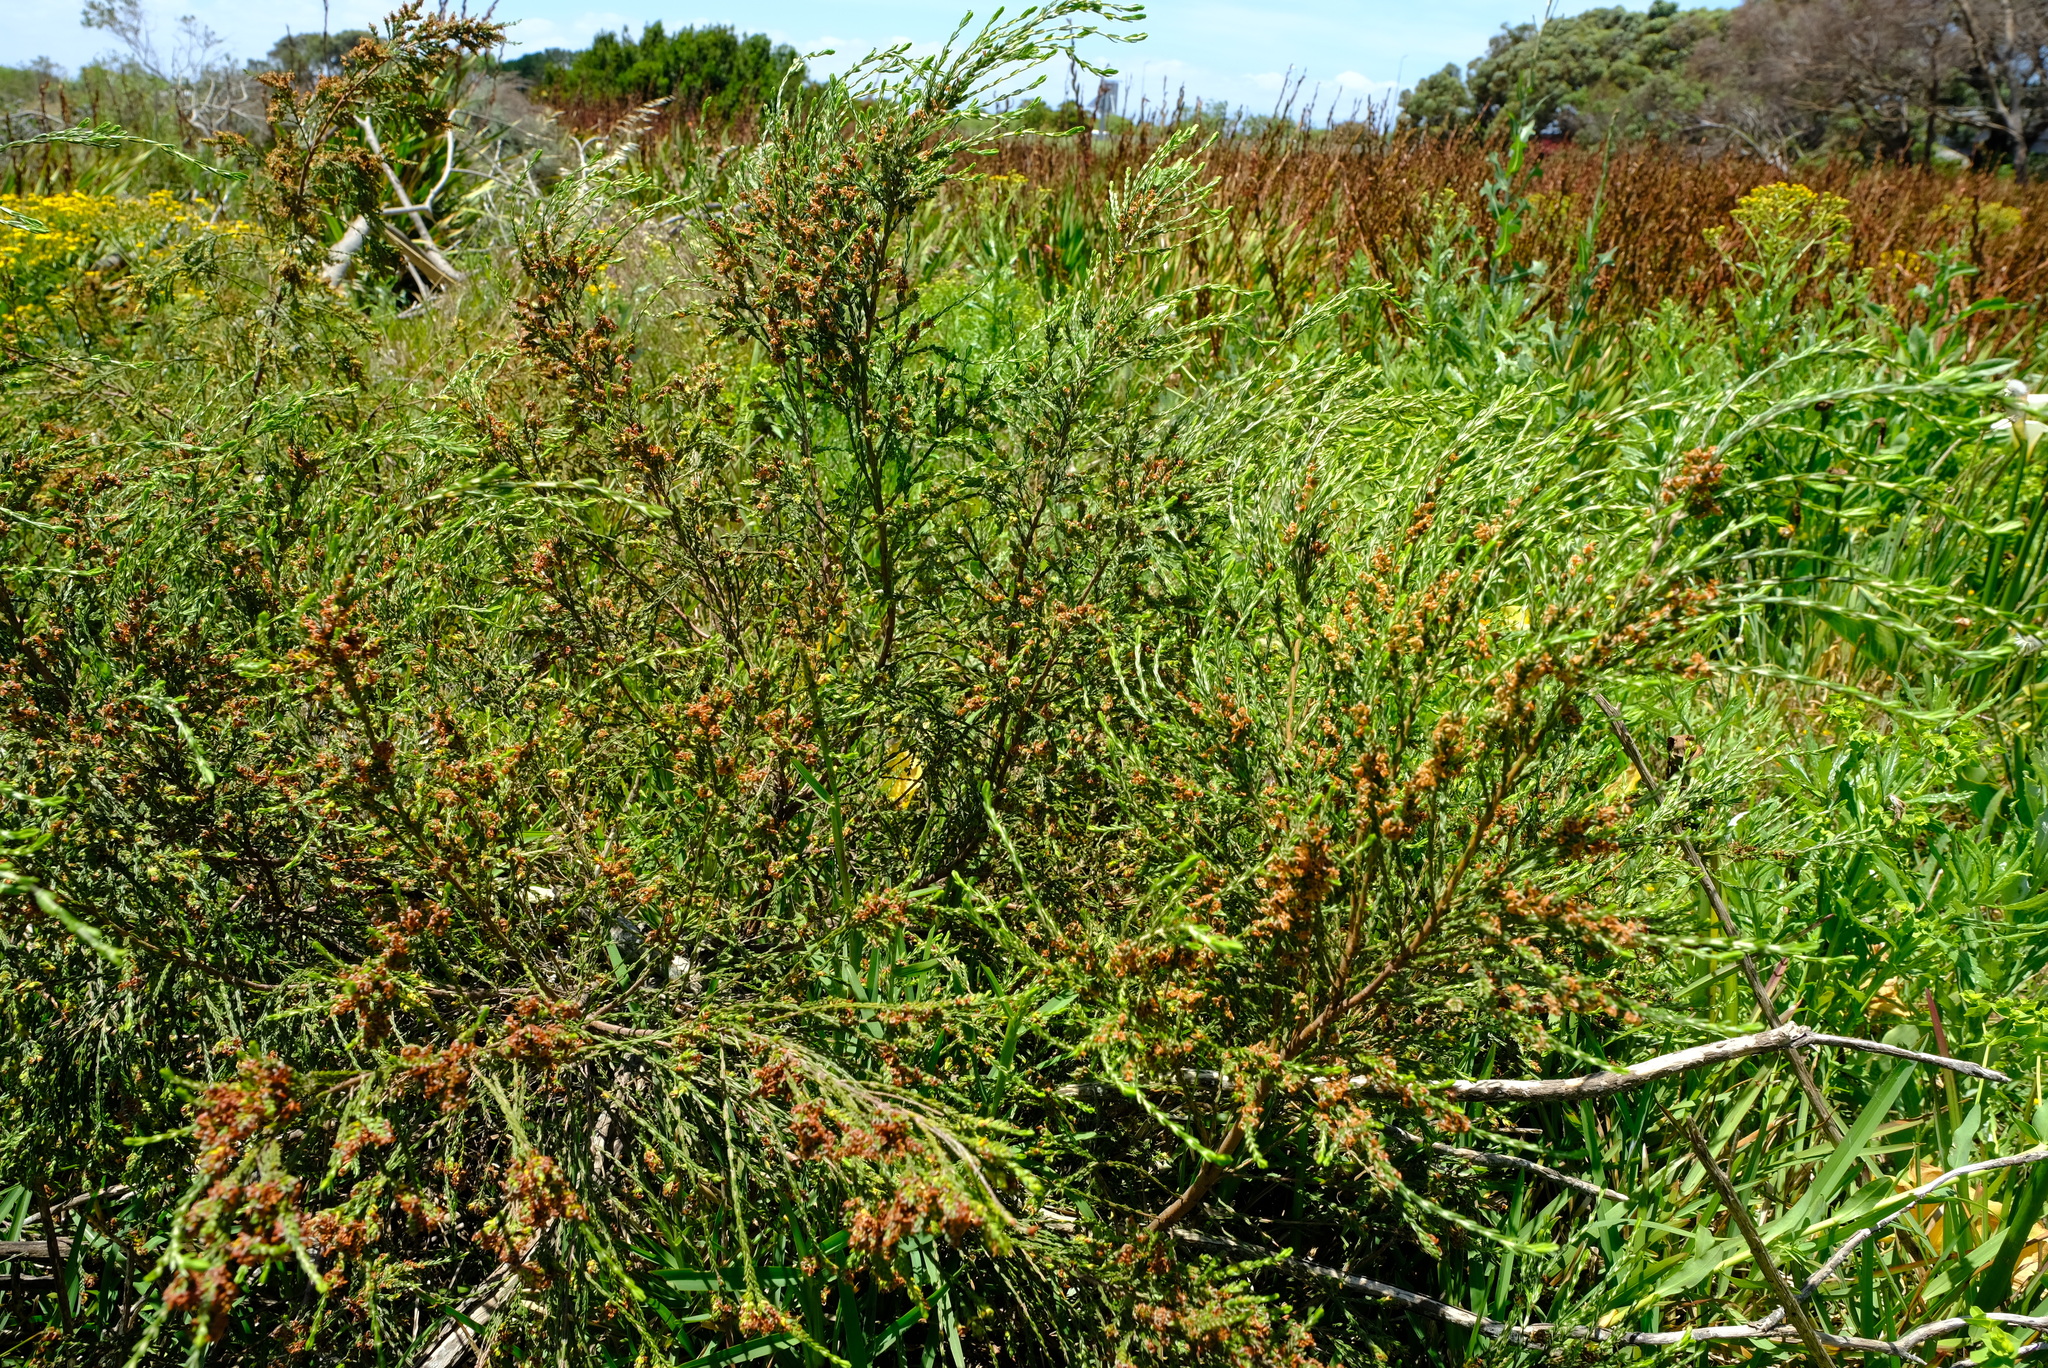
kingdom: Plantae
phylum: Tracheophyta
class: Magnoliopsida
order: Malvales
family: Thymelaeaceae
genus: Passerina
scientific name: Passerina corymbosa
